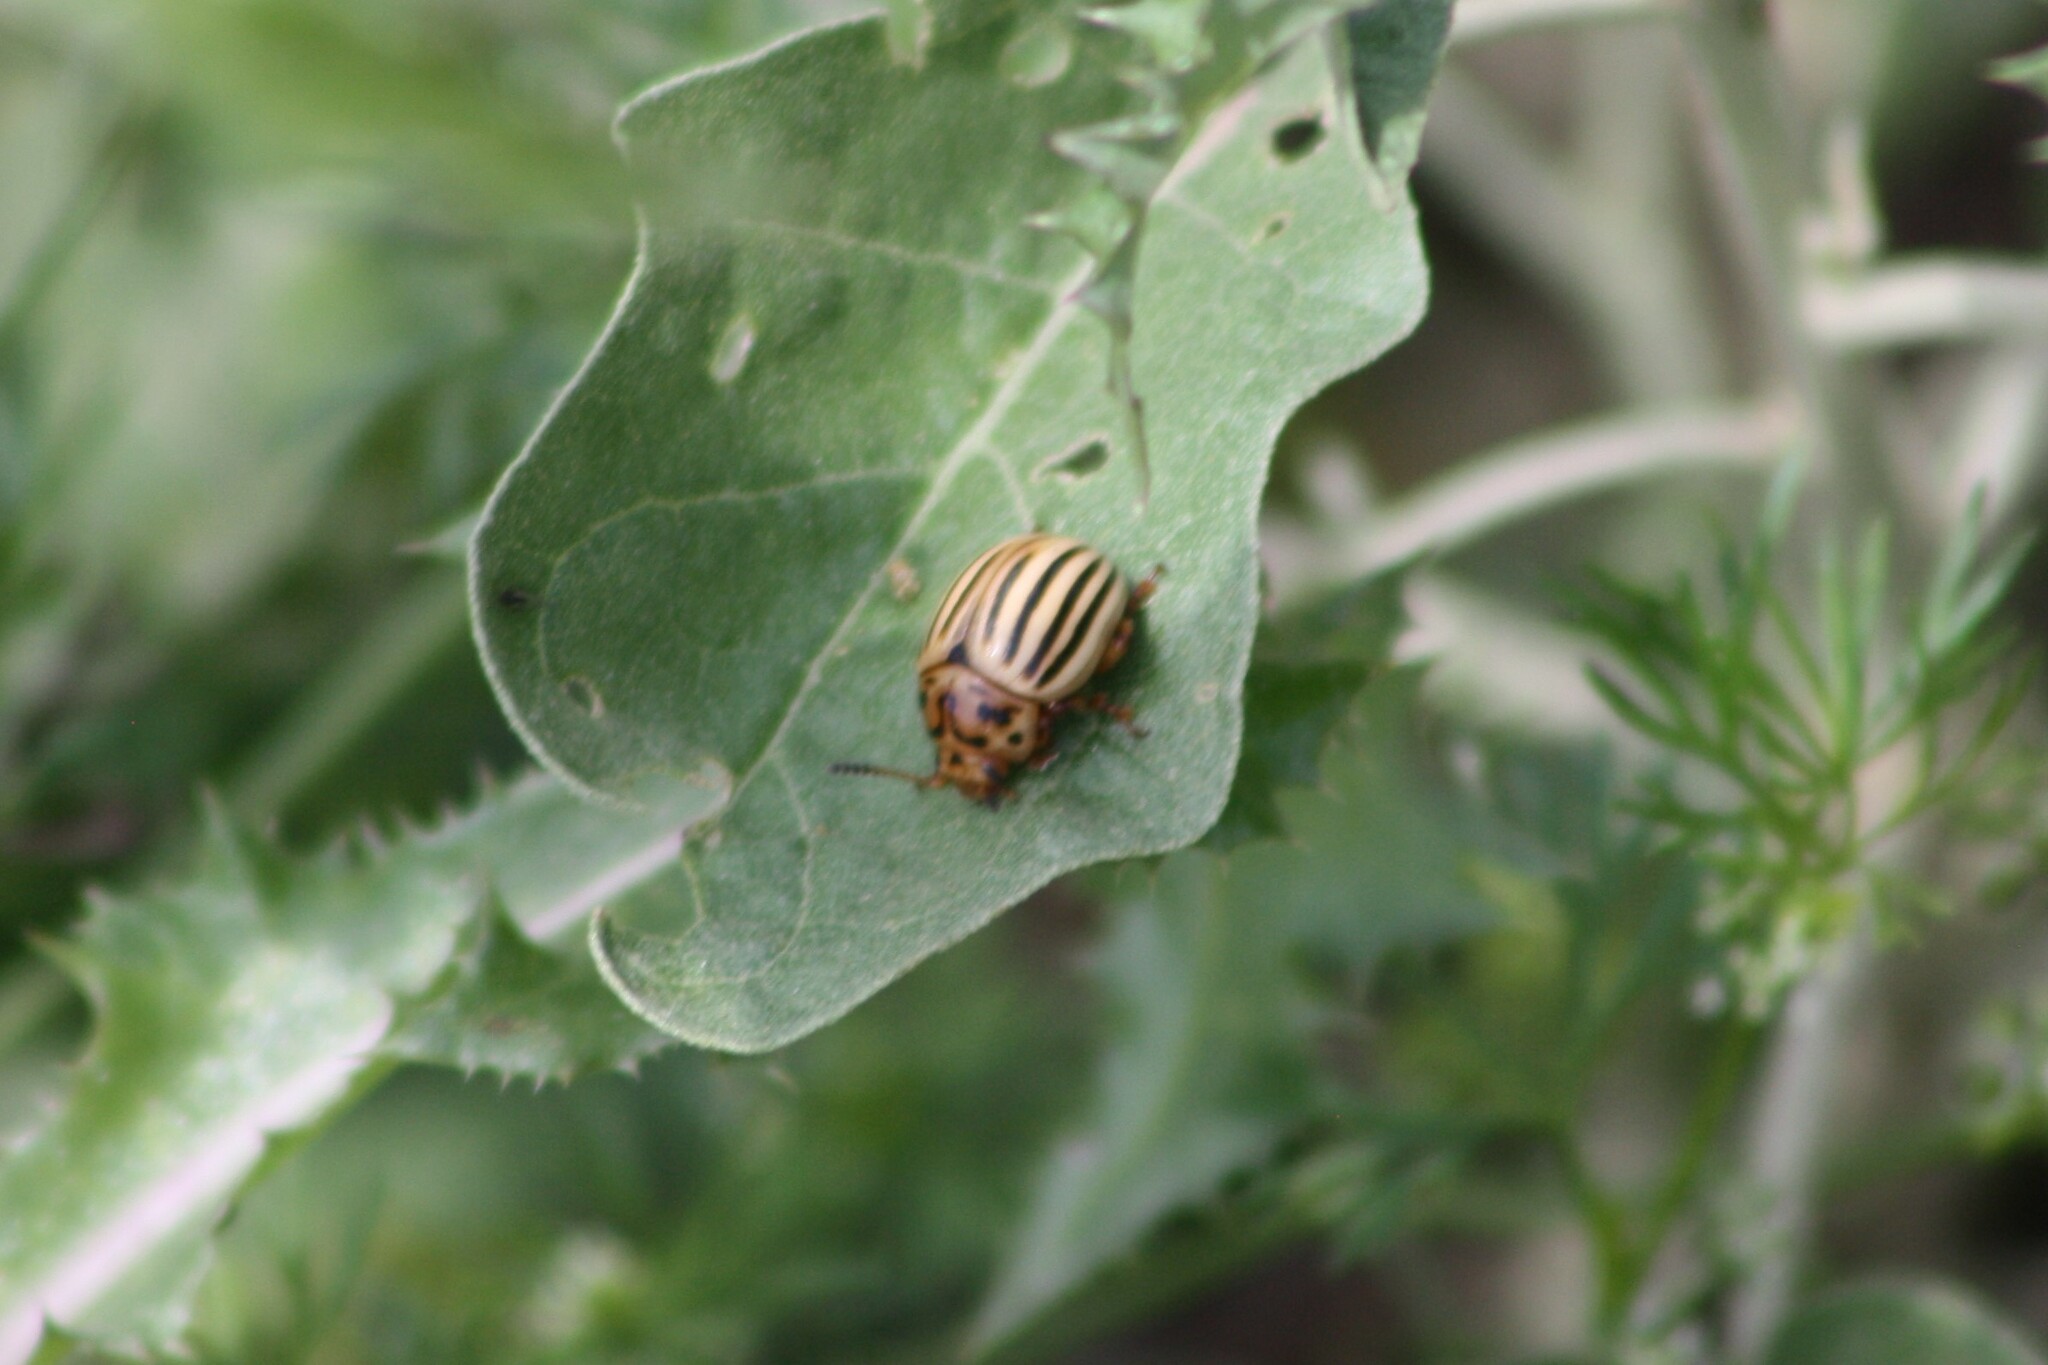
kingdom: Animalia
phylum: Arthropoda
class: Insecta
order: Coleoptera
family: Chrysomelidae
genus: Leptinotarsa
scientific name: Leptinotarsa texana
